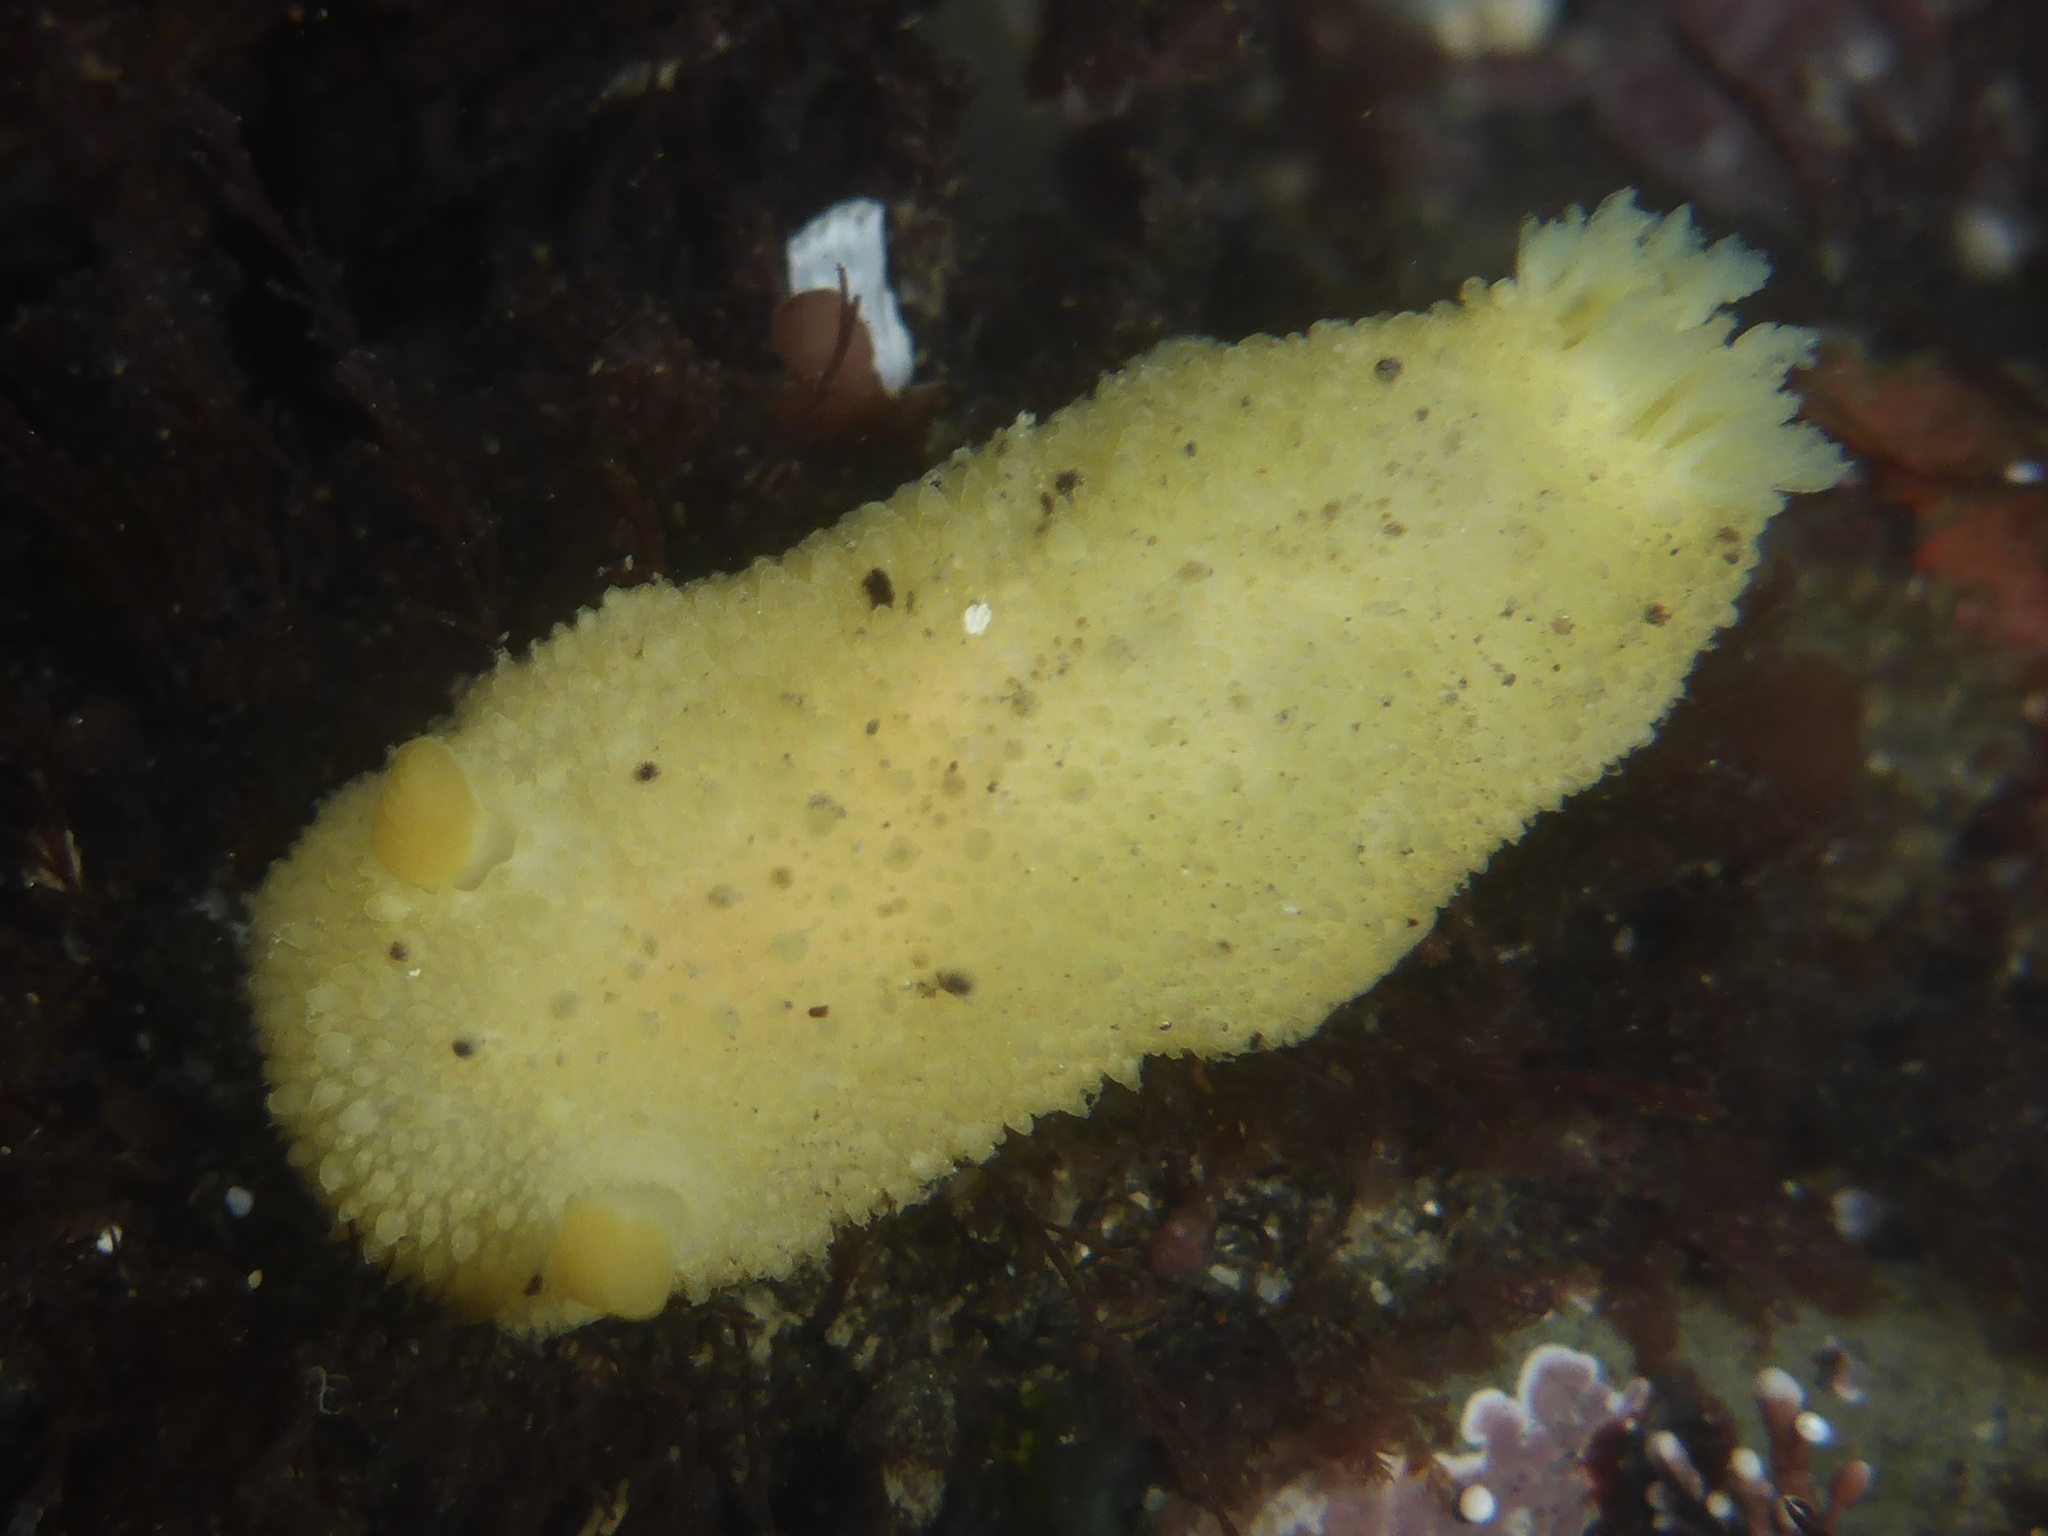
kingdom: Animalia
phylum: Mollusca
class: Gastropoda
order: Nudibranchia
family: Dorididae
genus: Doris
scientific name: Doris montereyensis
